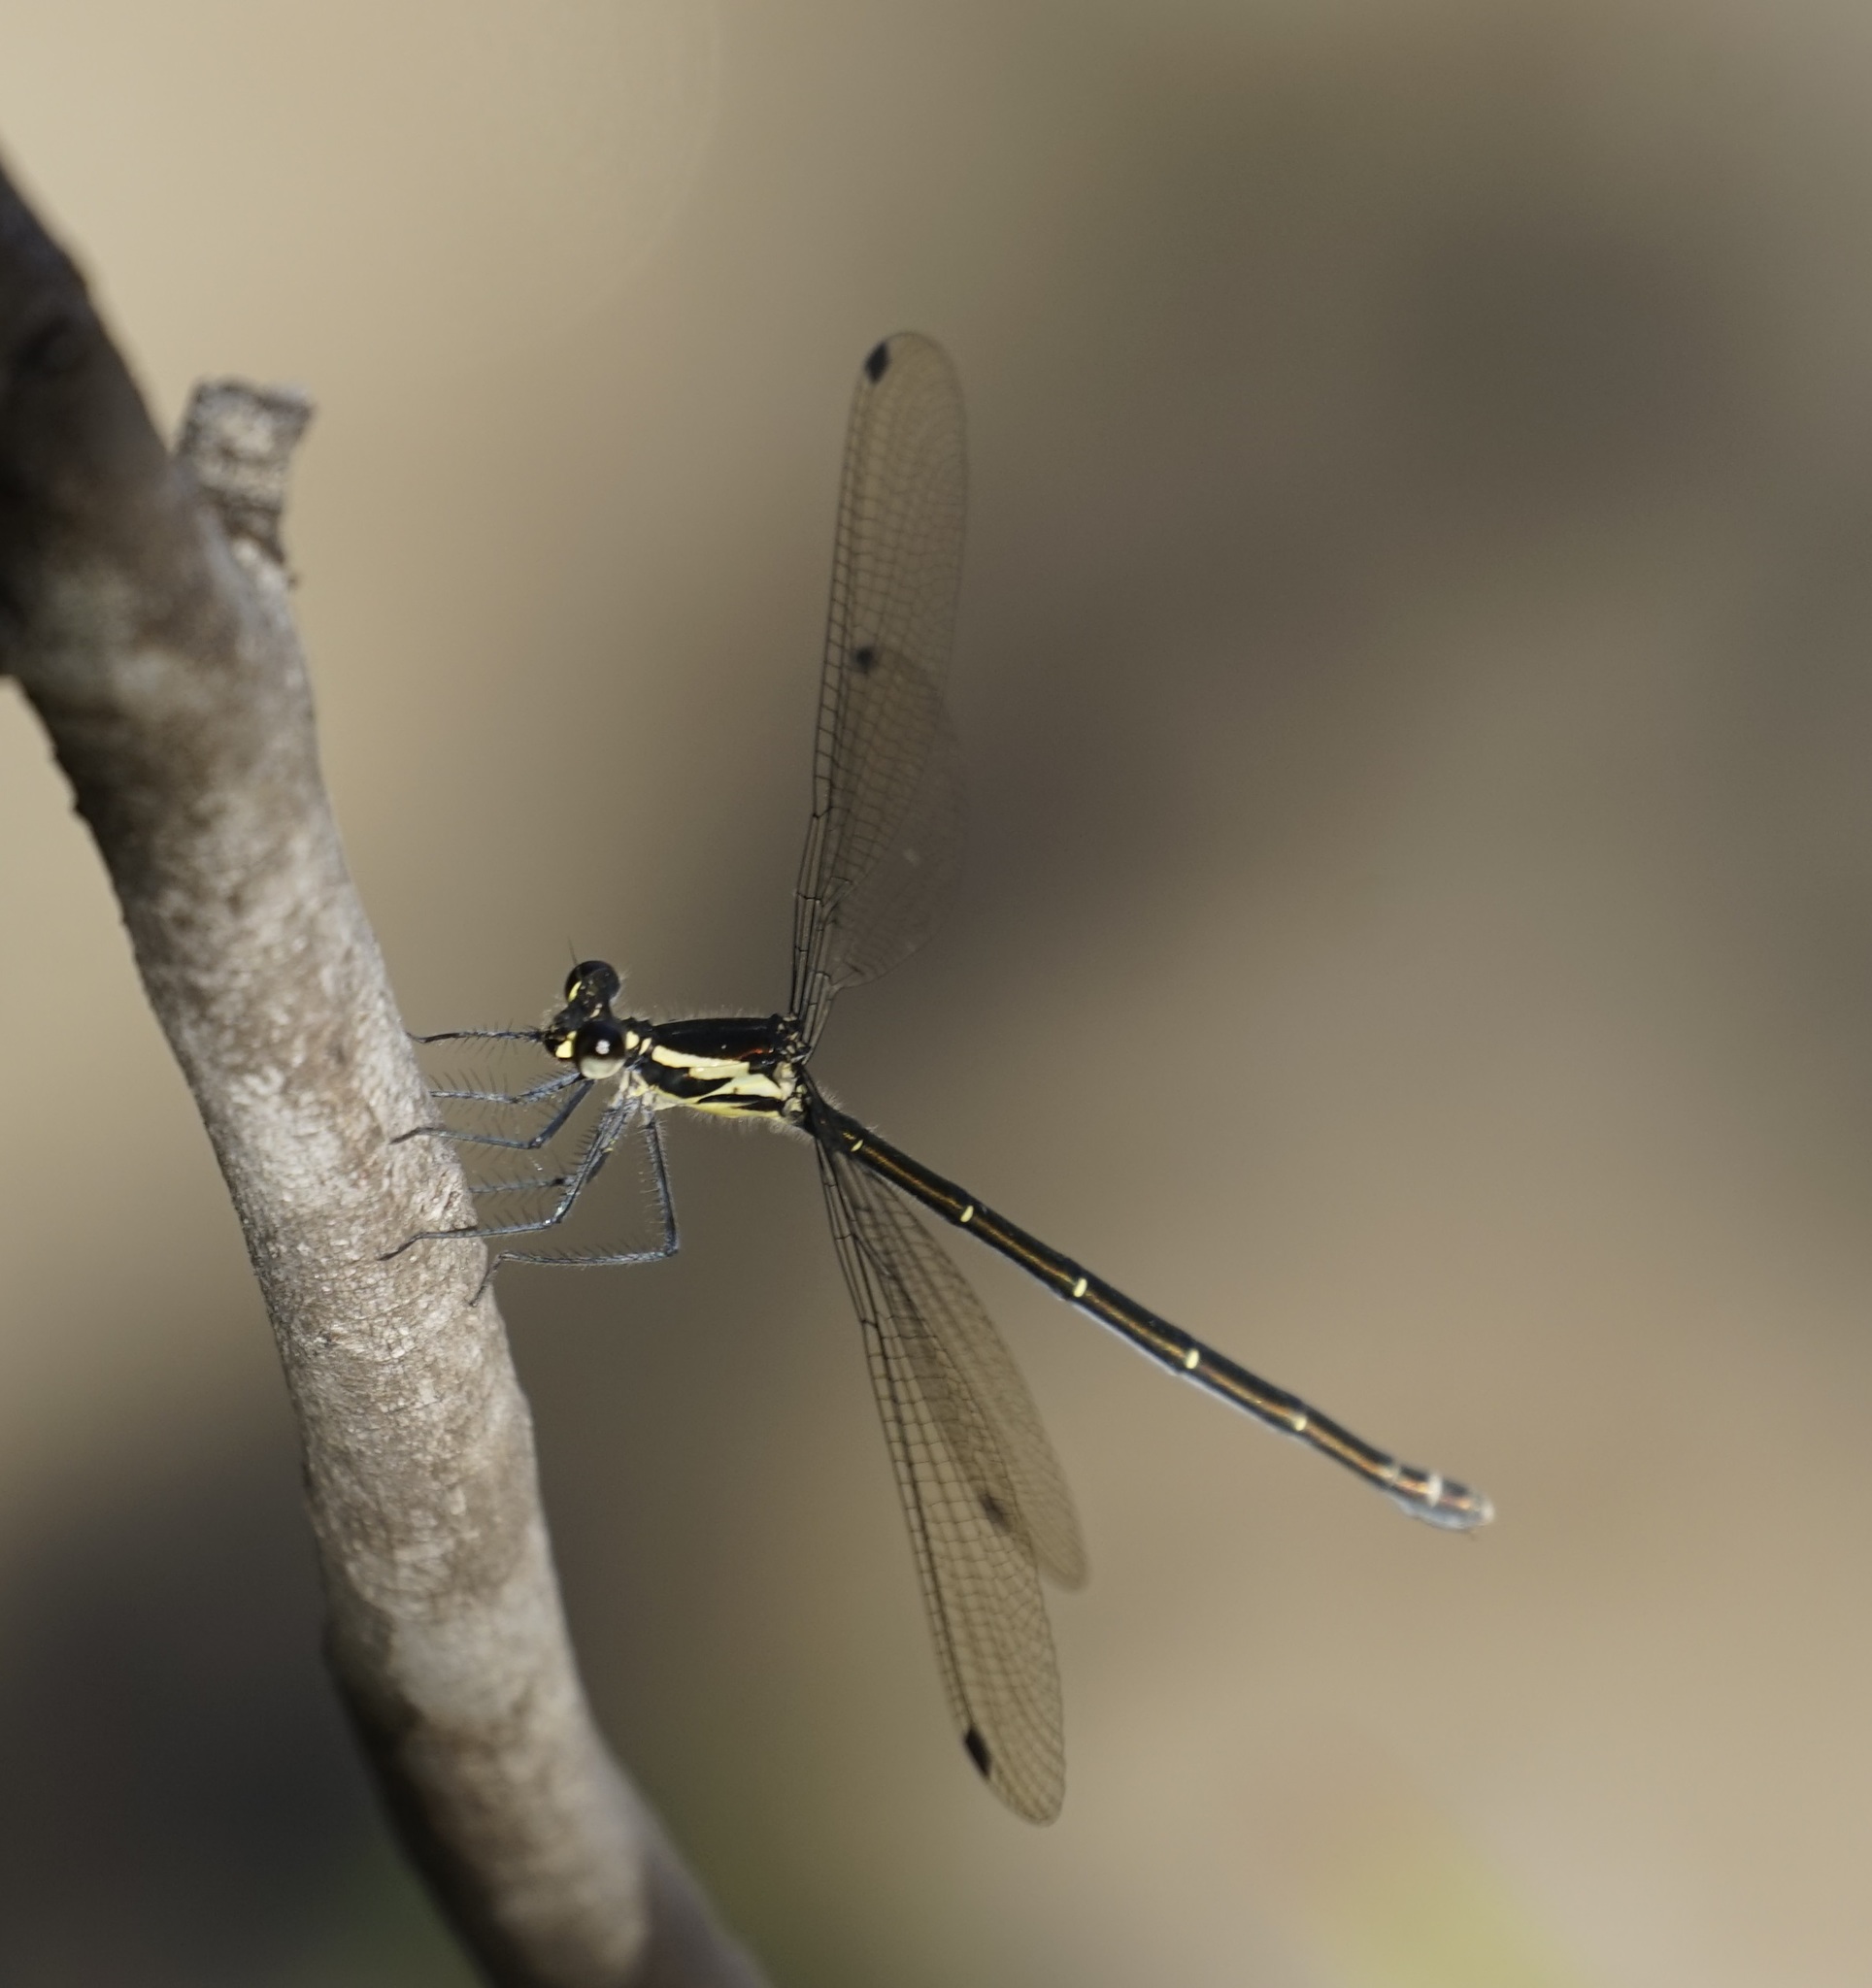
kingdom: Animalia
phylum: Arthropoda
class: Insecta
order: Odonata
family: Argiolestidae
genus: Austroargiolestes
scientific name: Austroargiolestes icteromelas
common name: Common flatwing
